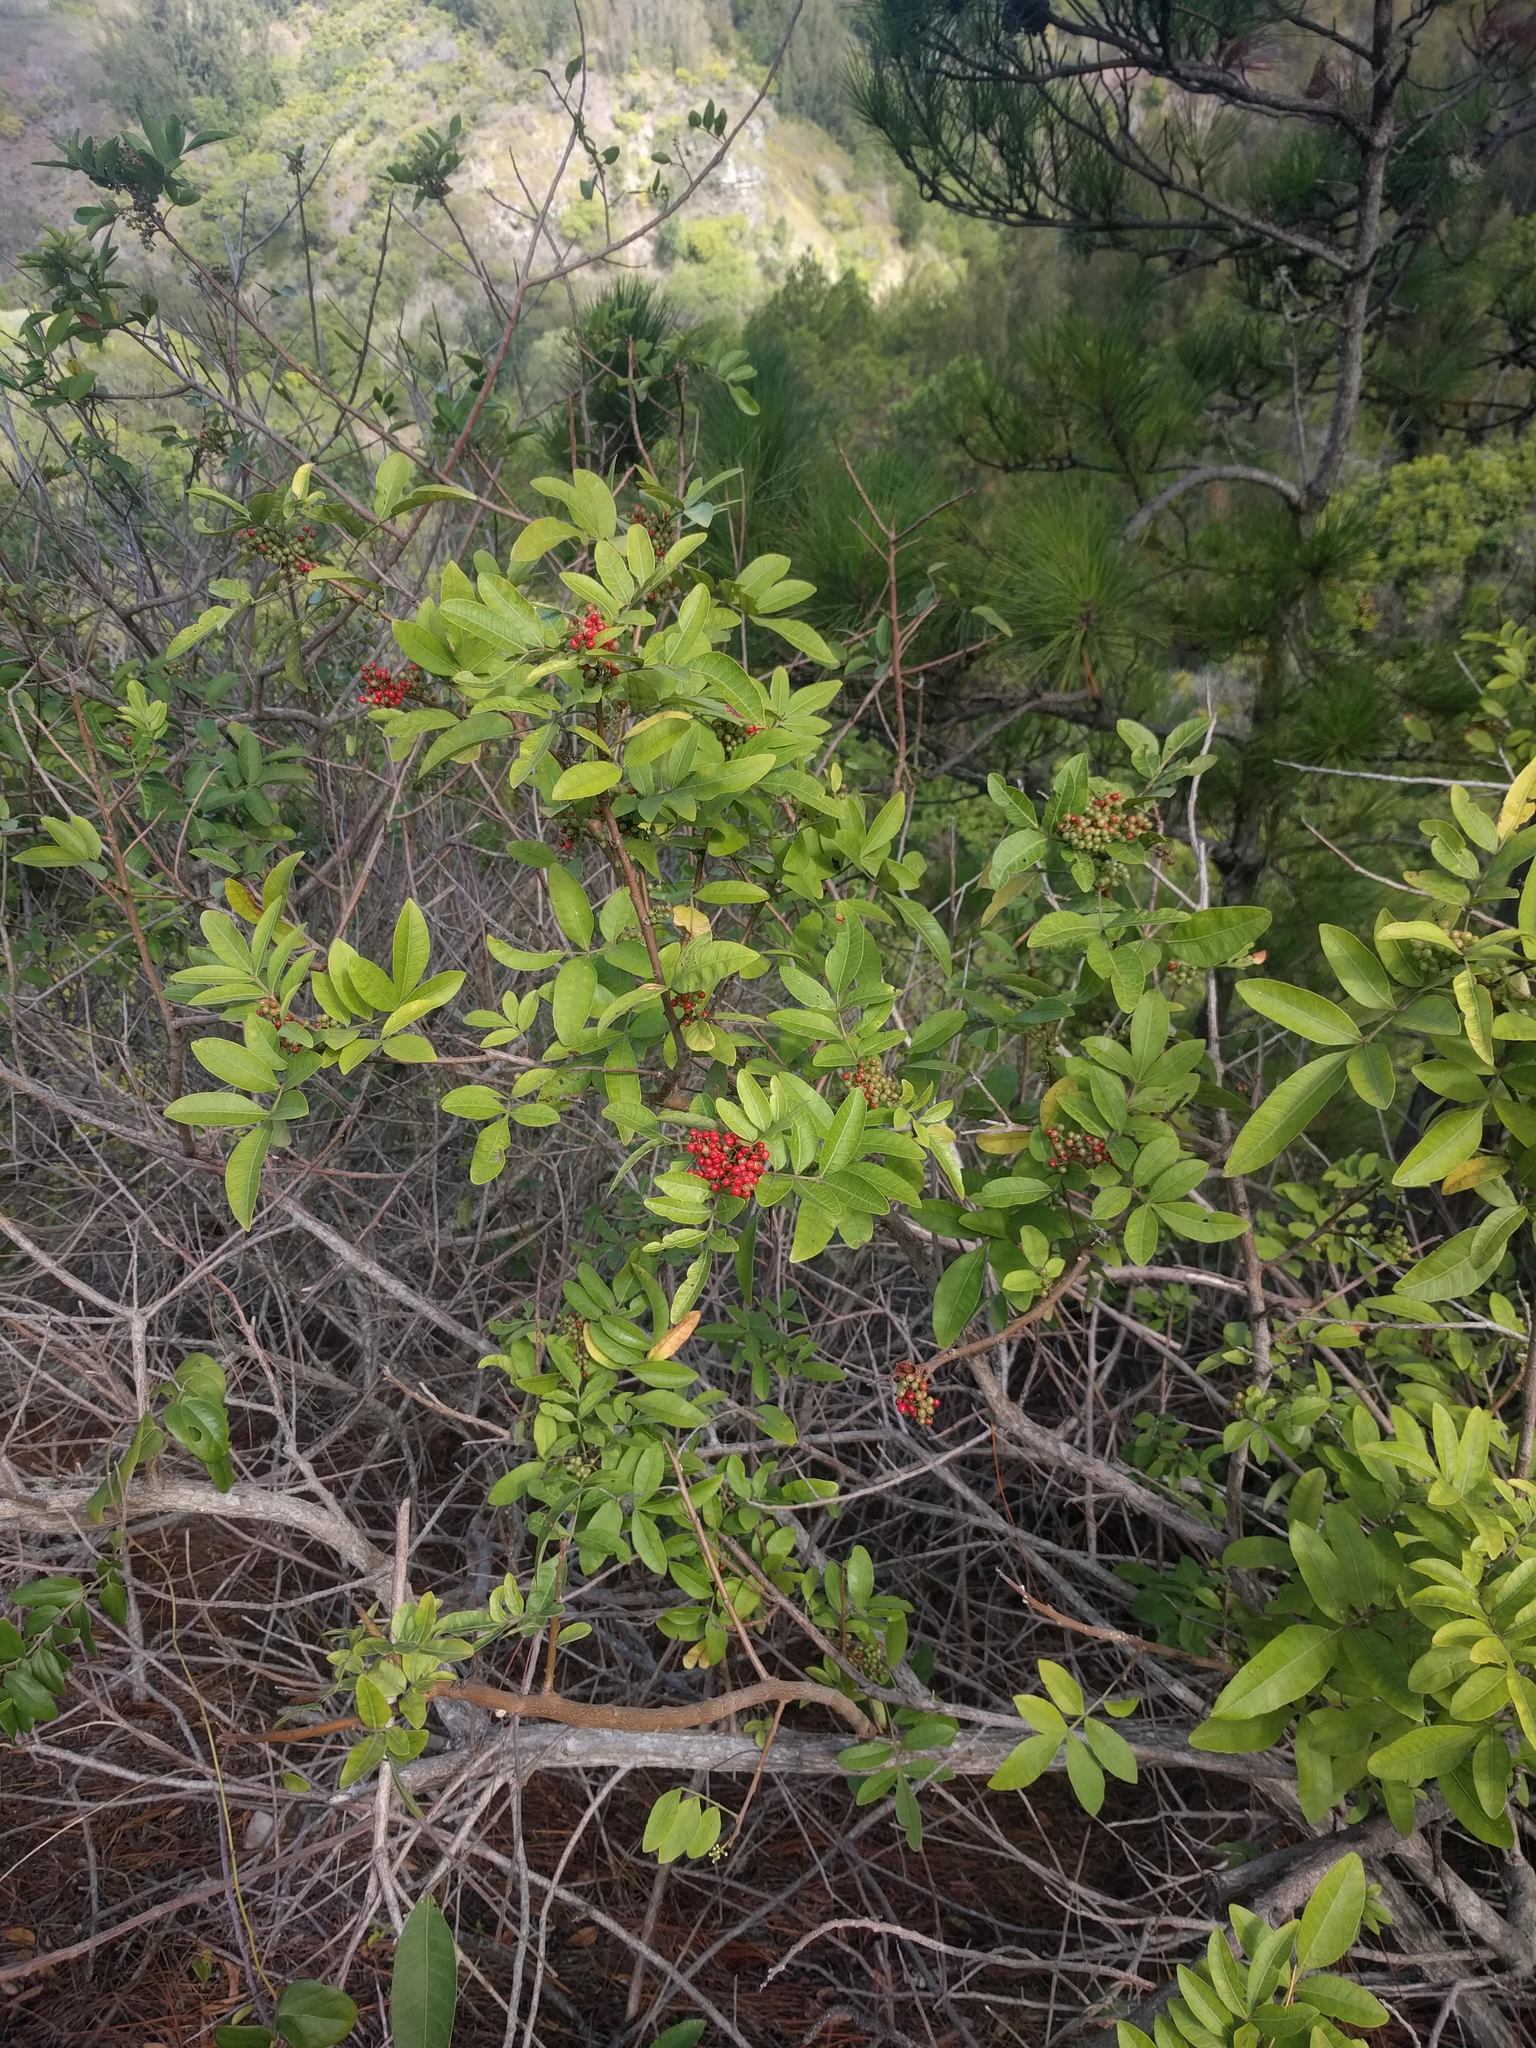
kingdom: Plantae
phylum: Tracheophyta
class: Magnoliopsida
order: Sapindales
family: Anacardiaceae
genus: Schinus
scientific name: Schinus terebinthifolia
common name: Brazilian peppertree
